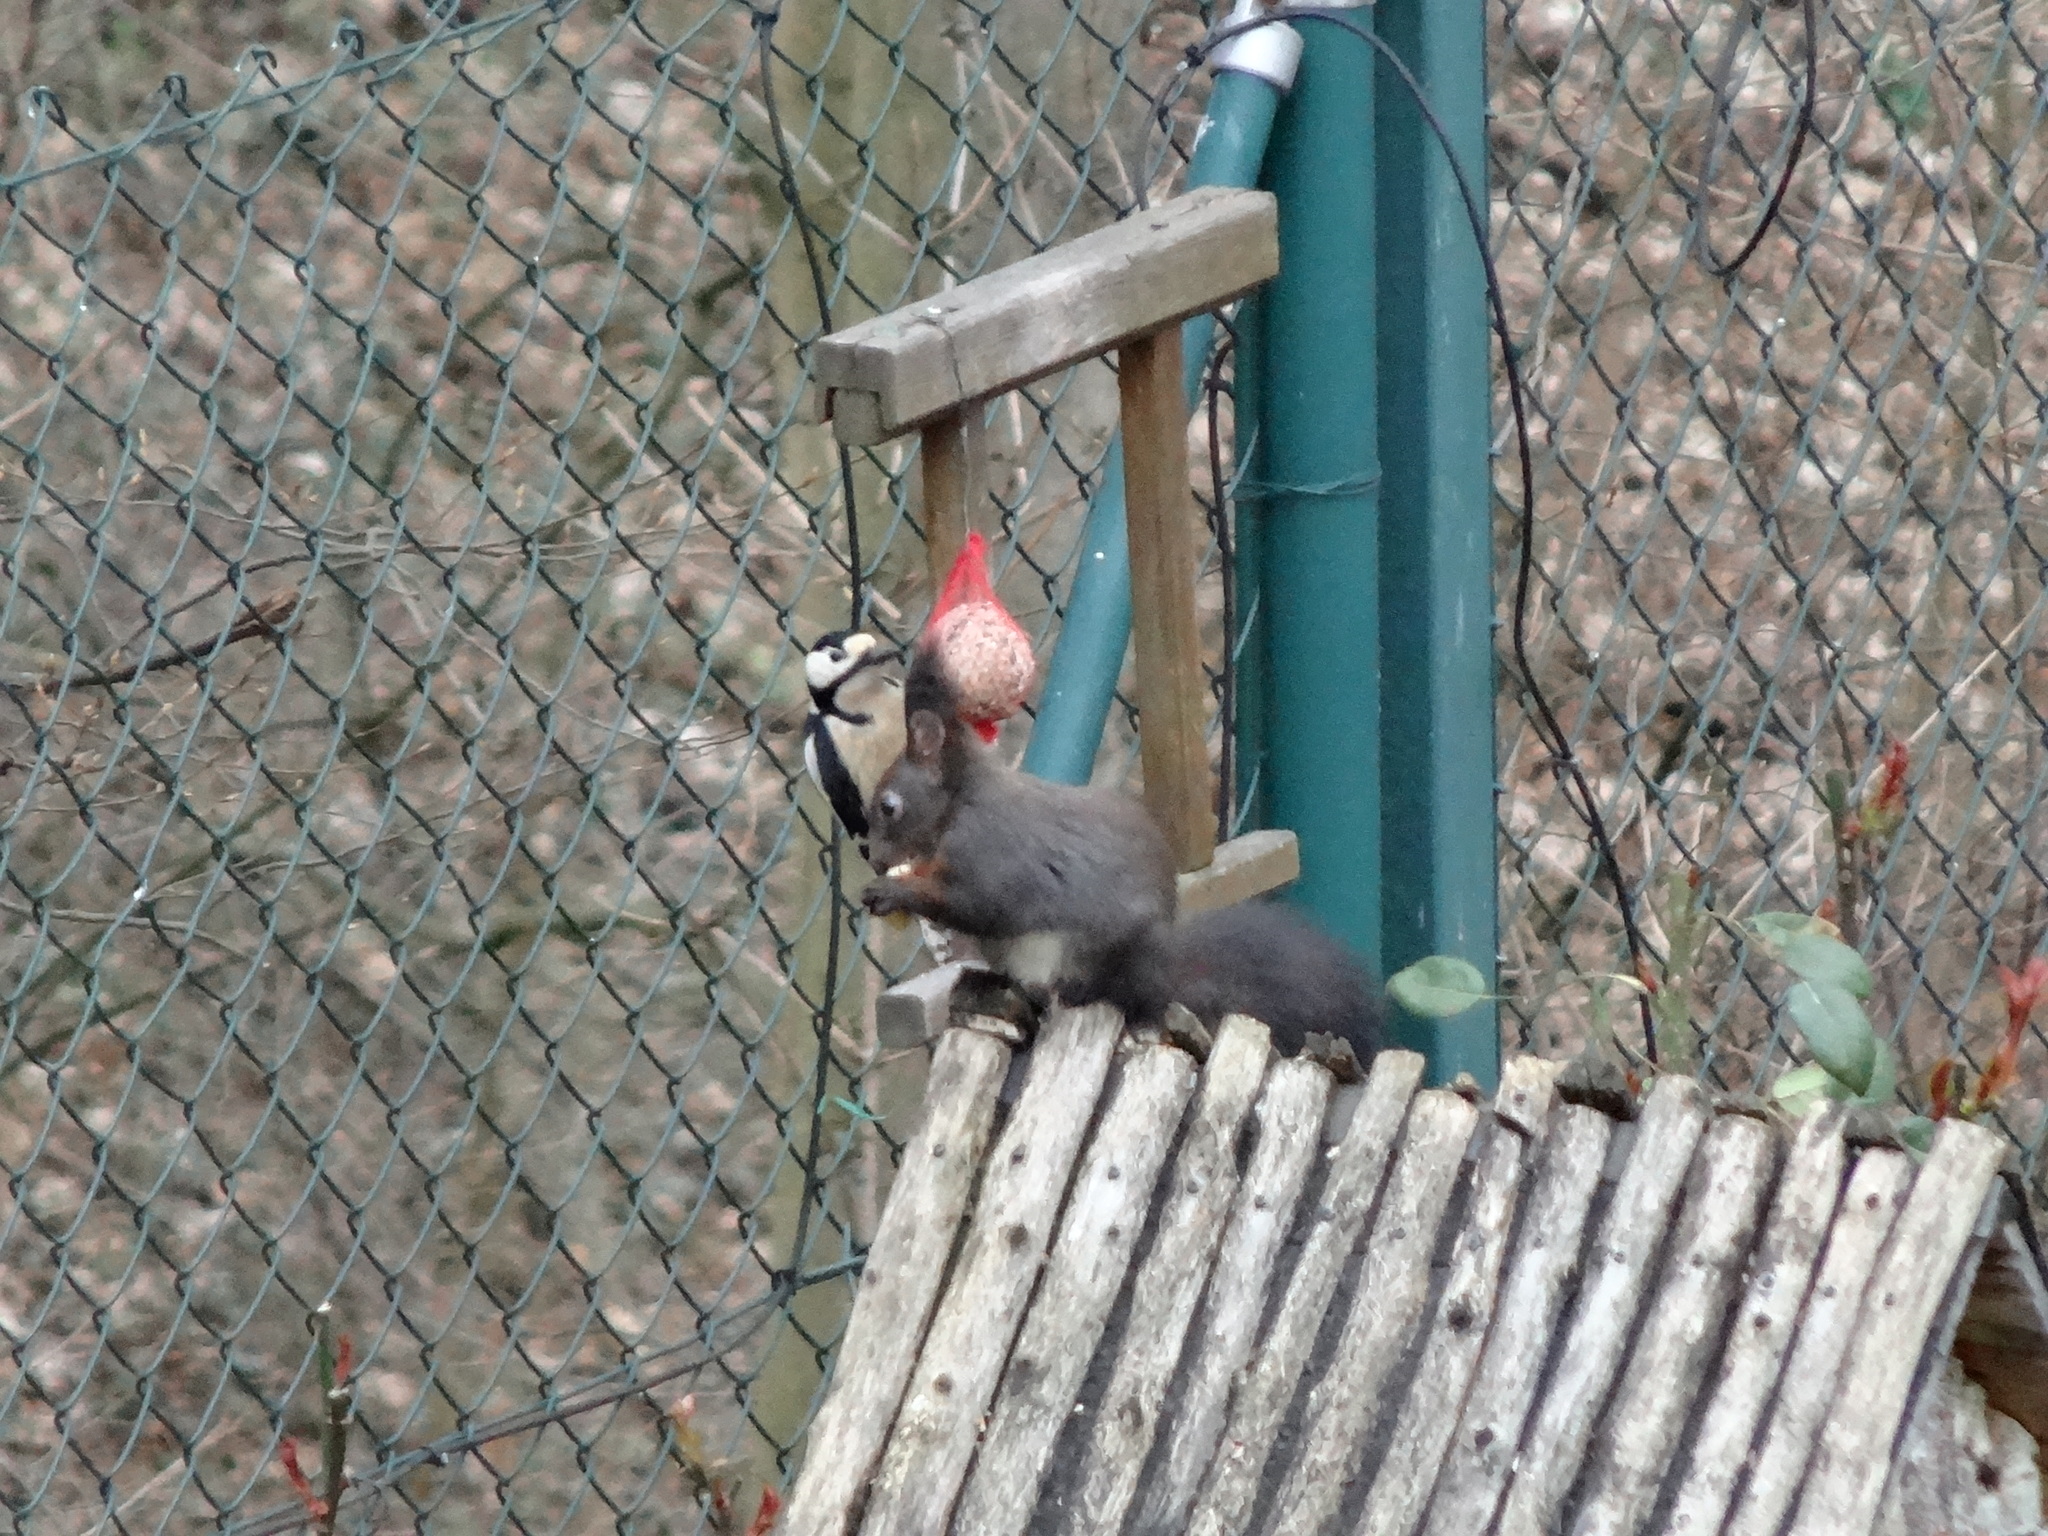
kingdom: Animalia
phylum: Chordata
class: Aves
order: Piciformes
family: Picidae
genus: Dendrocopos
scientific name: Dendrocopos major
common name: Great spotted woodpecker
